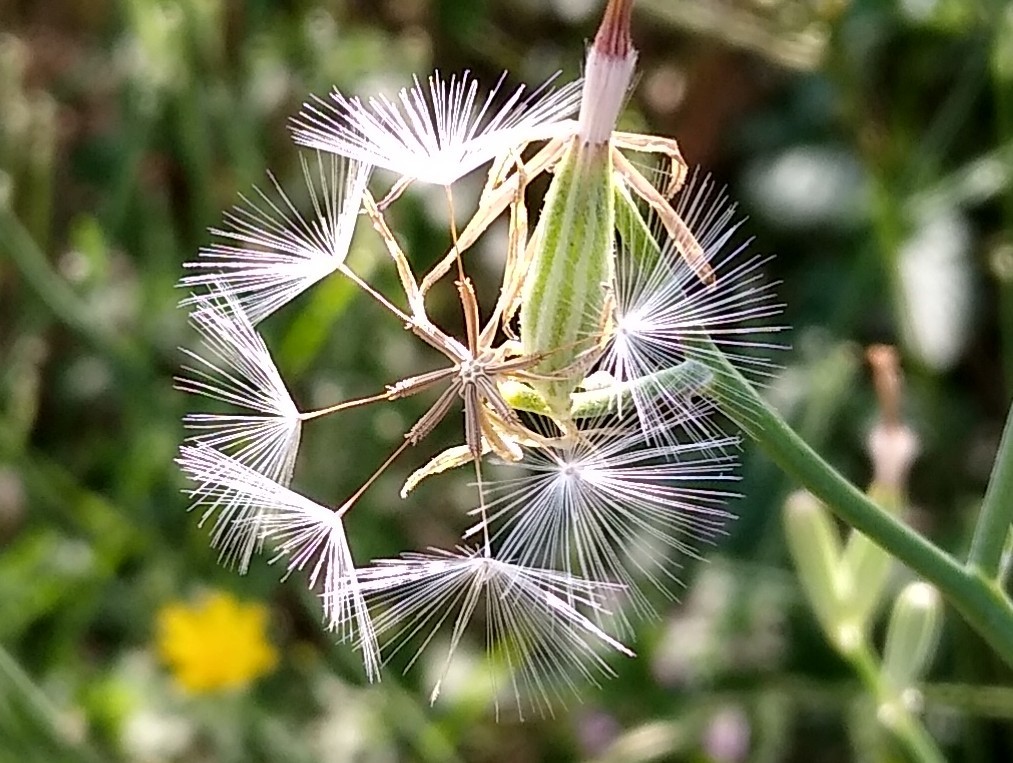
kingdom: Plantae
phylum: Tracheophyta
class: Magnoliopsida
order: Asterales
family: Asteraceae
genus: Chondrilla
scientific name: Chondrilla juncea
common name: Skeleton weed
